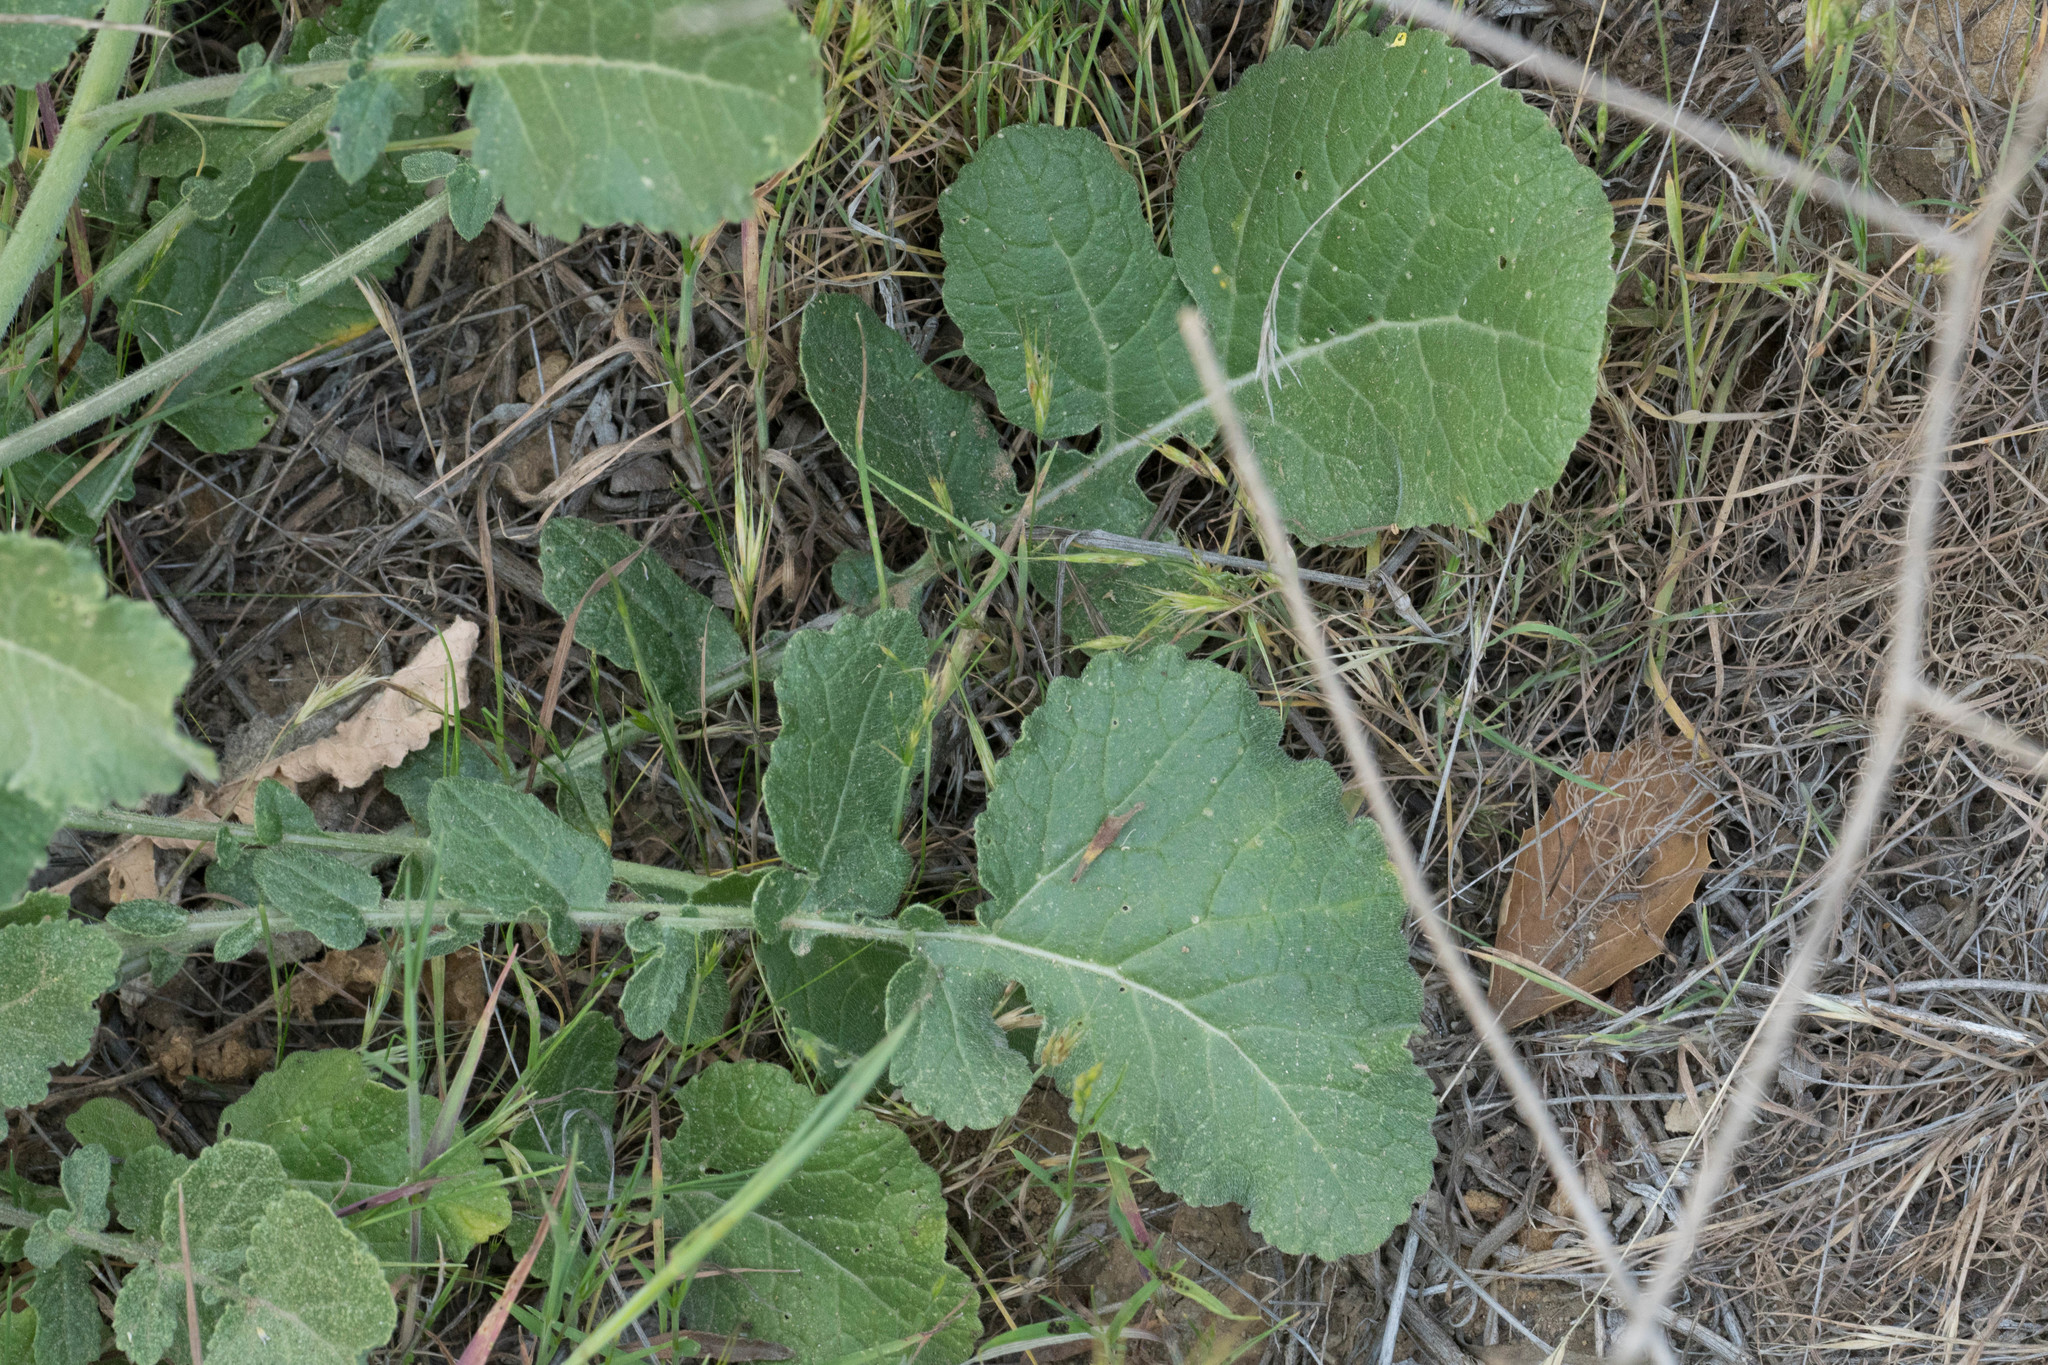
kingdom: Plantae
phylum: Tracheophyta
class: Magnoliopsida
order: Brassicales
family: Brassicaceae
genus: Hirschfeldia
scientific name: Hirschfeldia incana
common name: Hoary mustard
